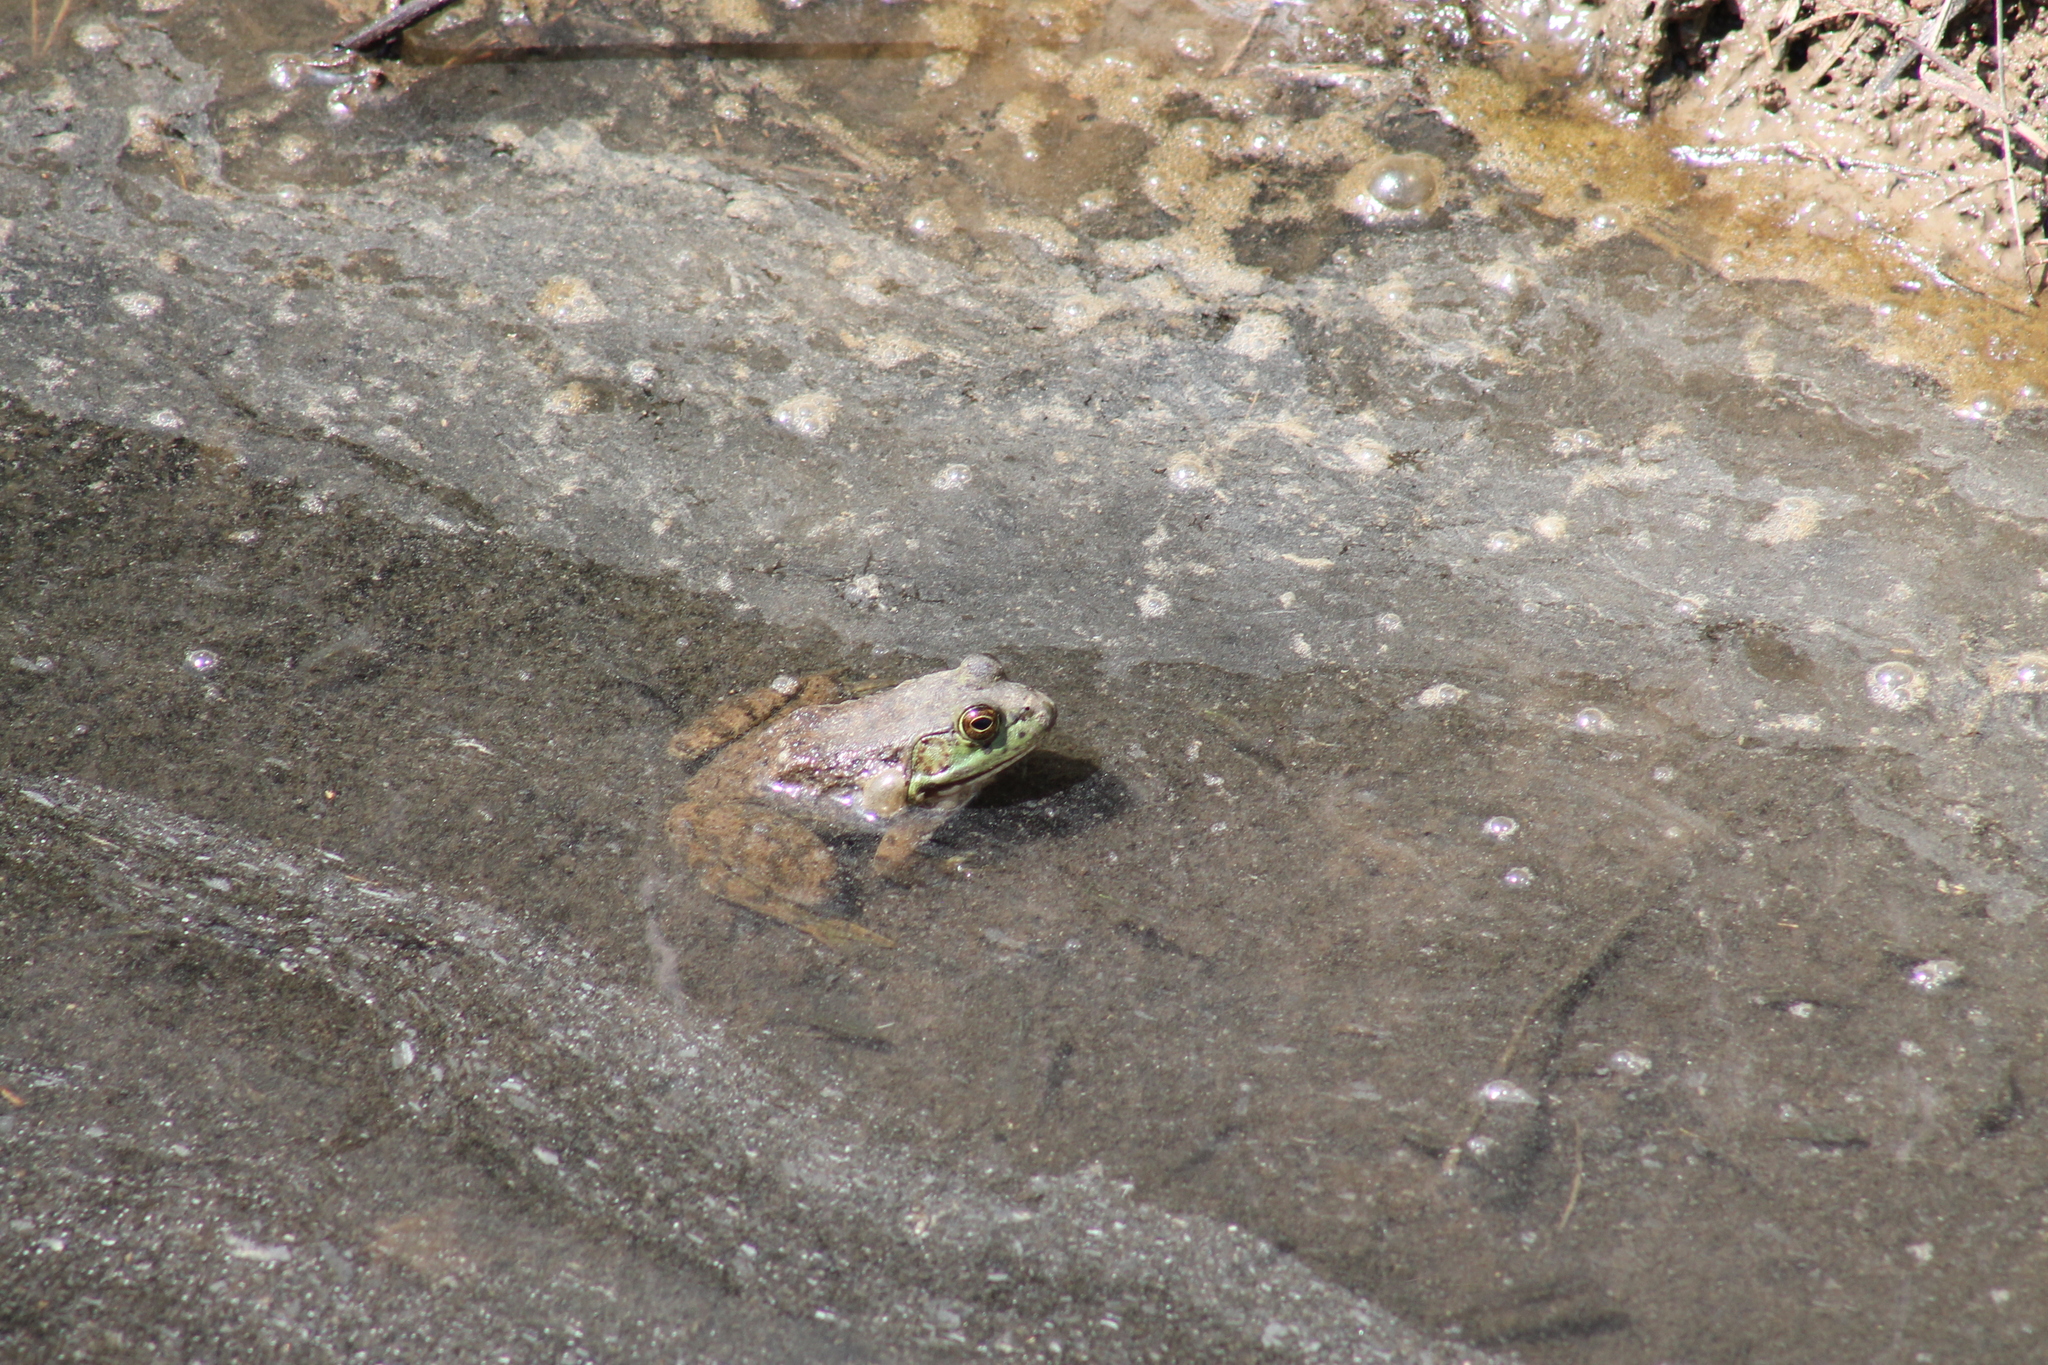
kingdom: Animalia
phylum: Chordata
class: Amphibia
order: Anura
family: Ranidae
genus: Lithobates
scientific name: Lithobates catesbeianus
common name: American bullfrog
